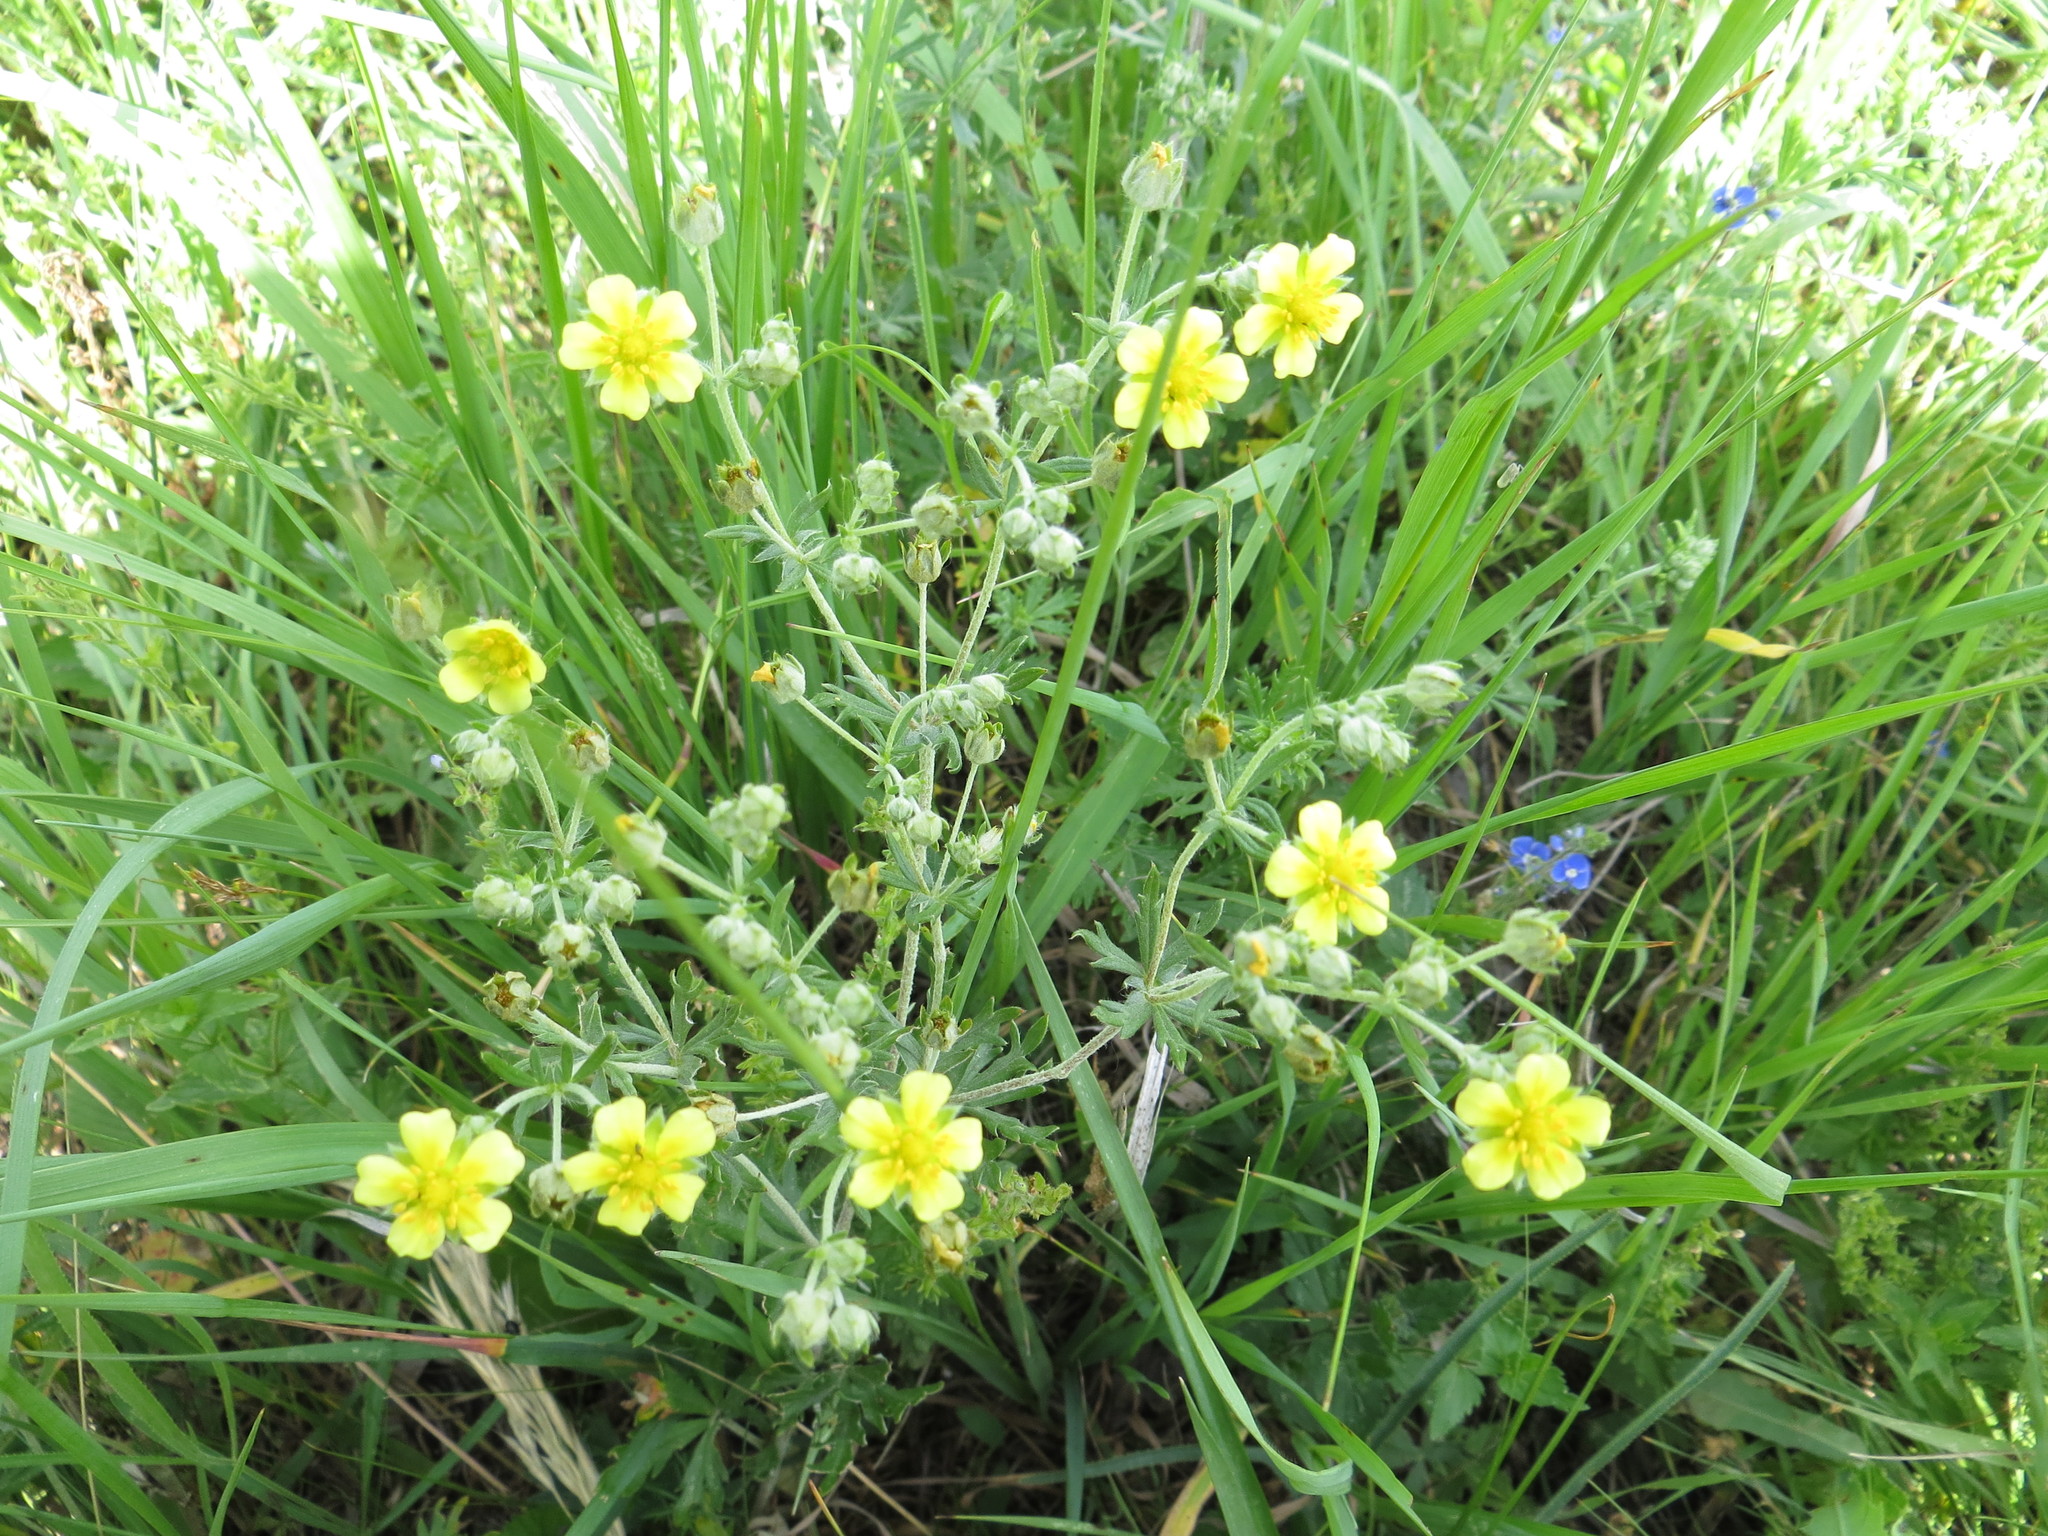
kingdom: Plantae
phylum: Tracheophyta
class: Magnoliopsida
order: Rosales
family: Rosaceae
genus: Potentilla
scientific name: Potentilla argentea
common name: Hoary cinquefoil
